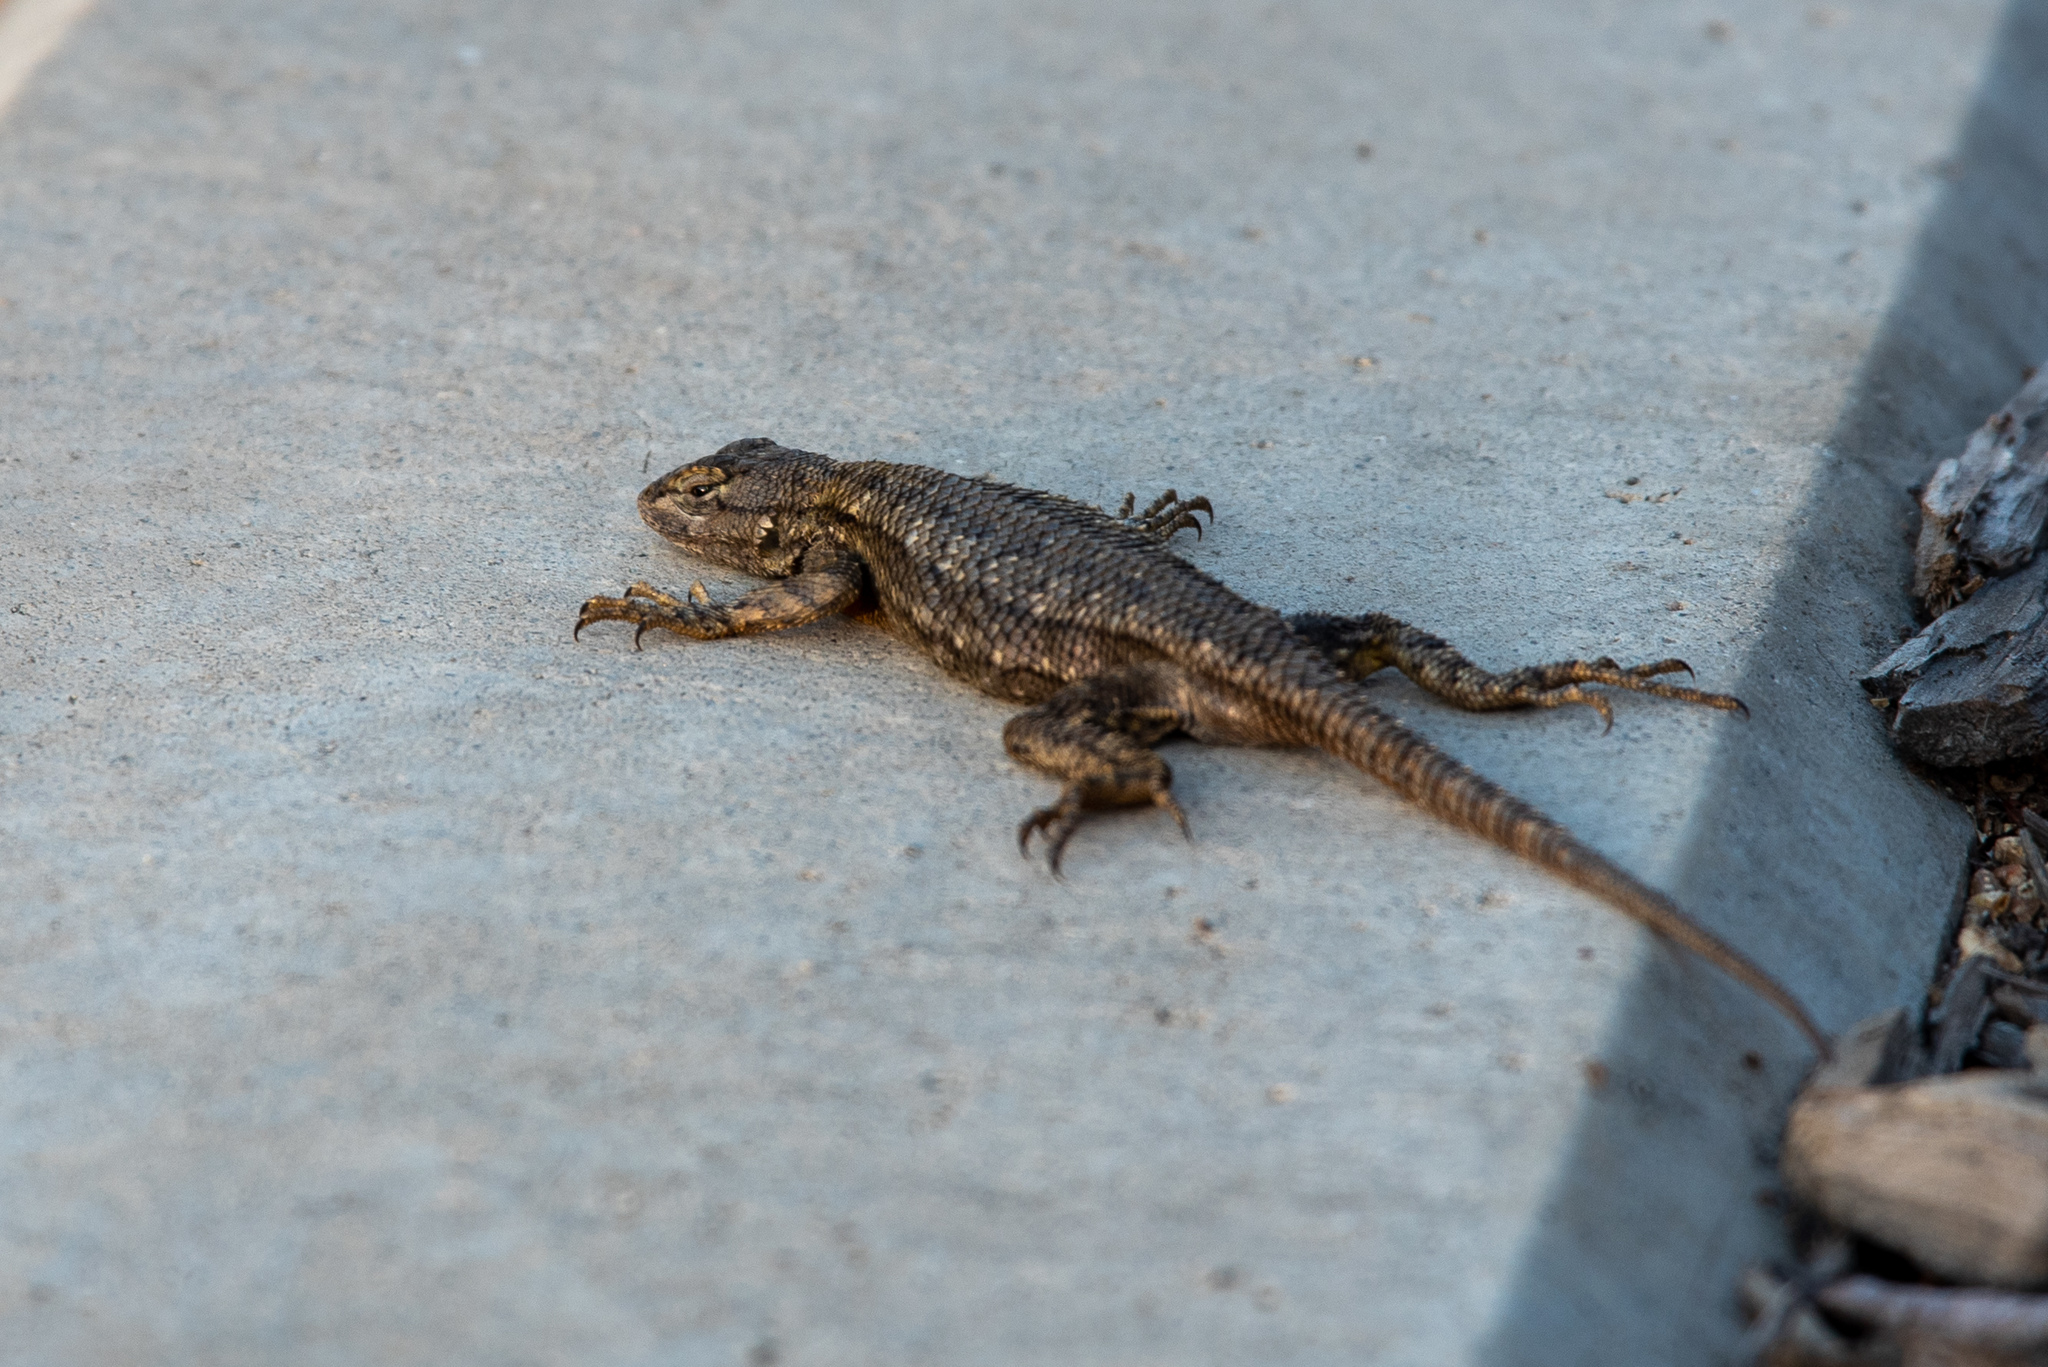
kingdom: Animalia
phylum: Chordata
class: Squamata
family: Phrynosomatidae
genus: Sceloporus
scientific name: Sceloporus occidentalis
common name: Western fence lizard
